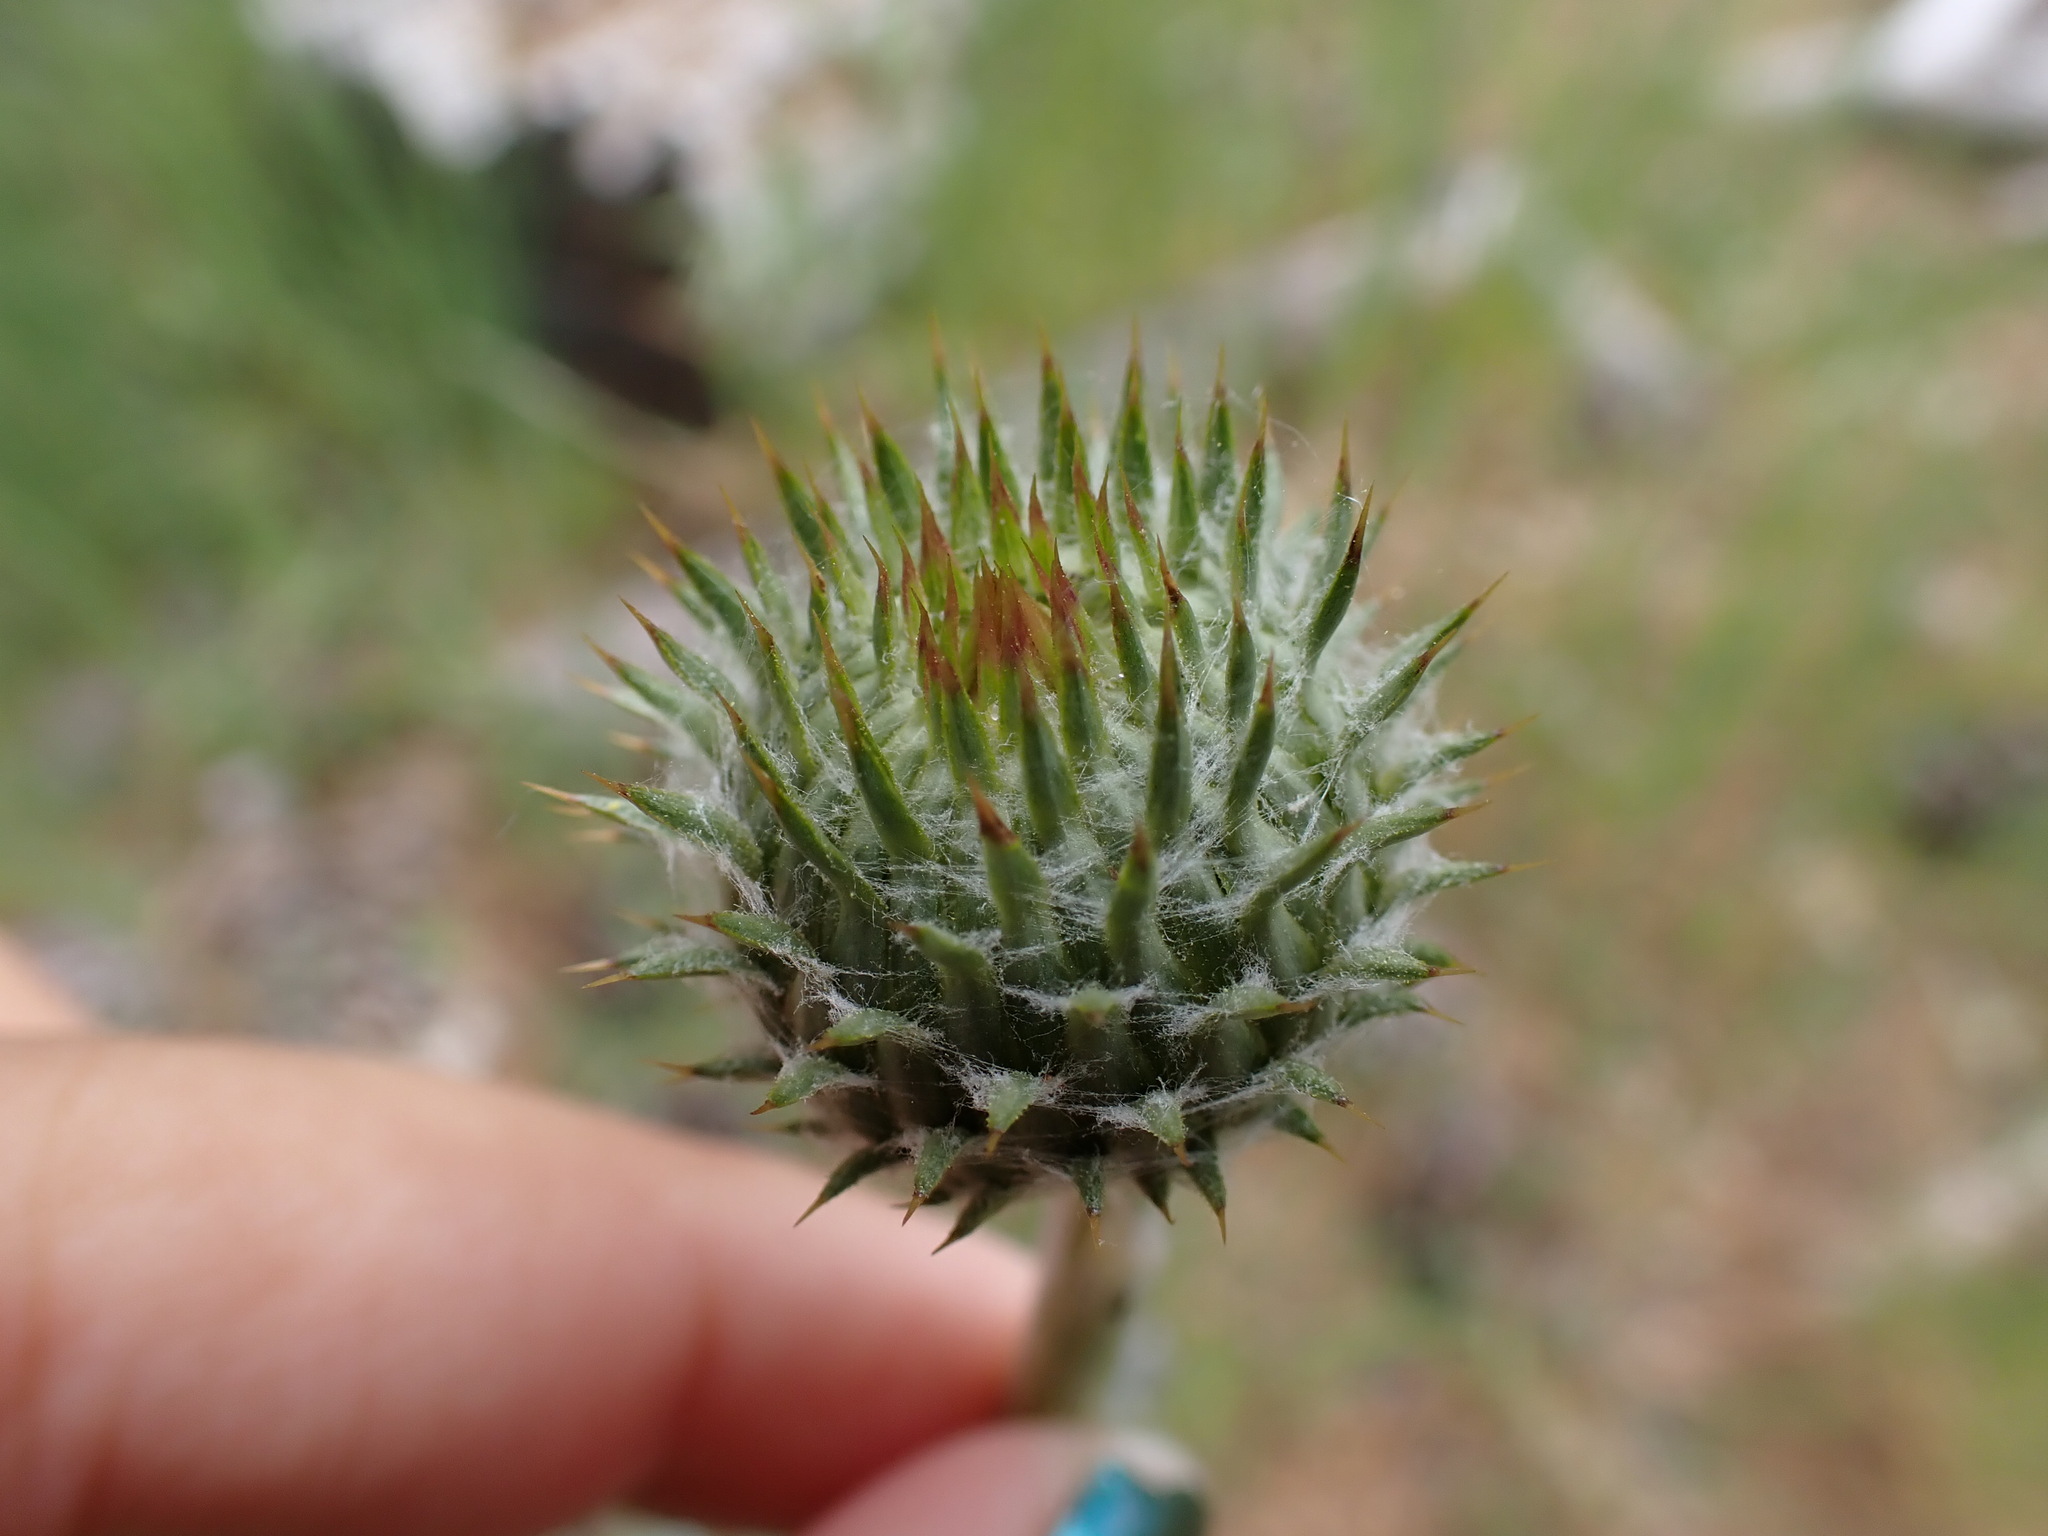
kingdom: Plantae
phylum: Tracheophyta
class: Magnoliopsida
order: Asterales
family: Asteraceae
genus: Cirsium
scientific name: Cirsium occidentale
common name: Western thistle
